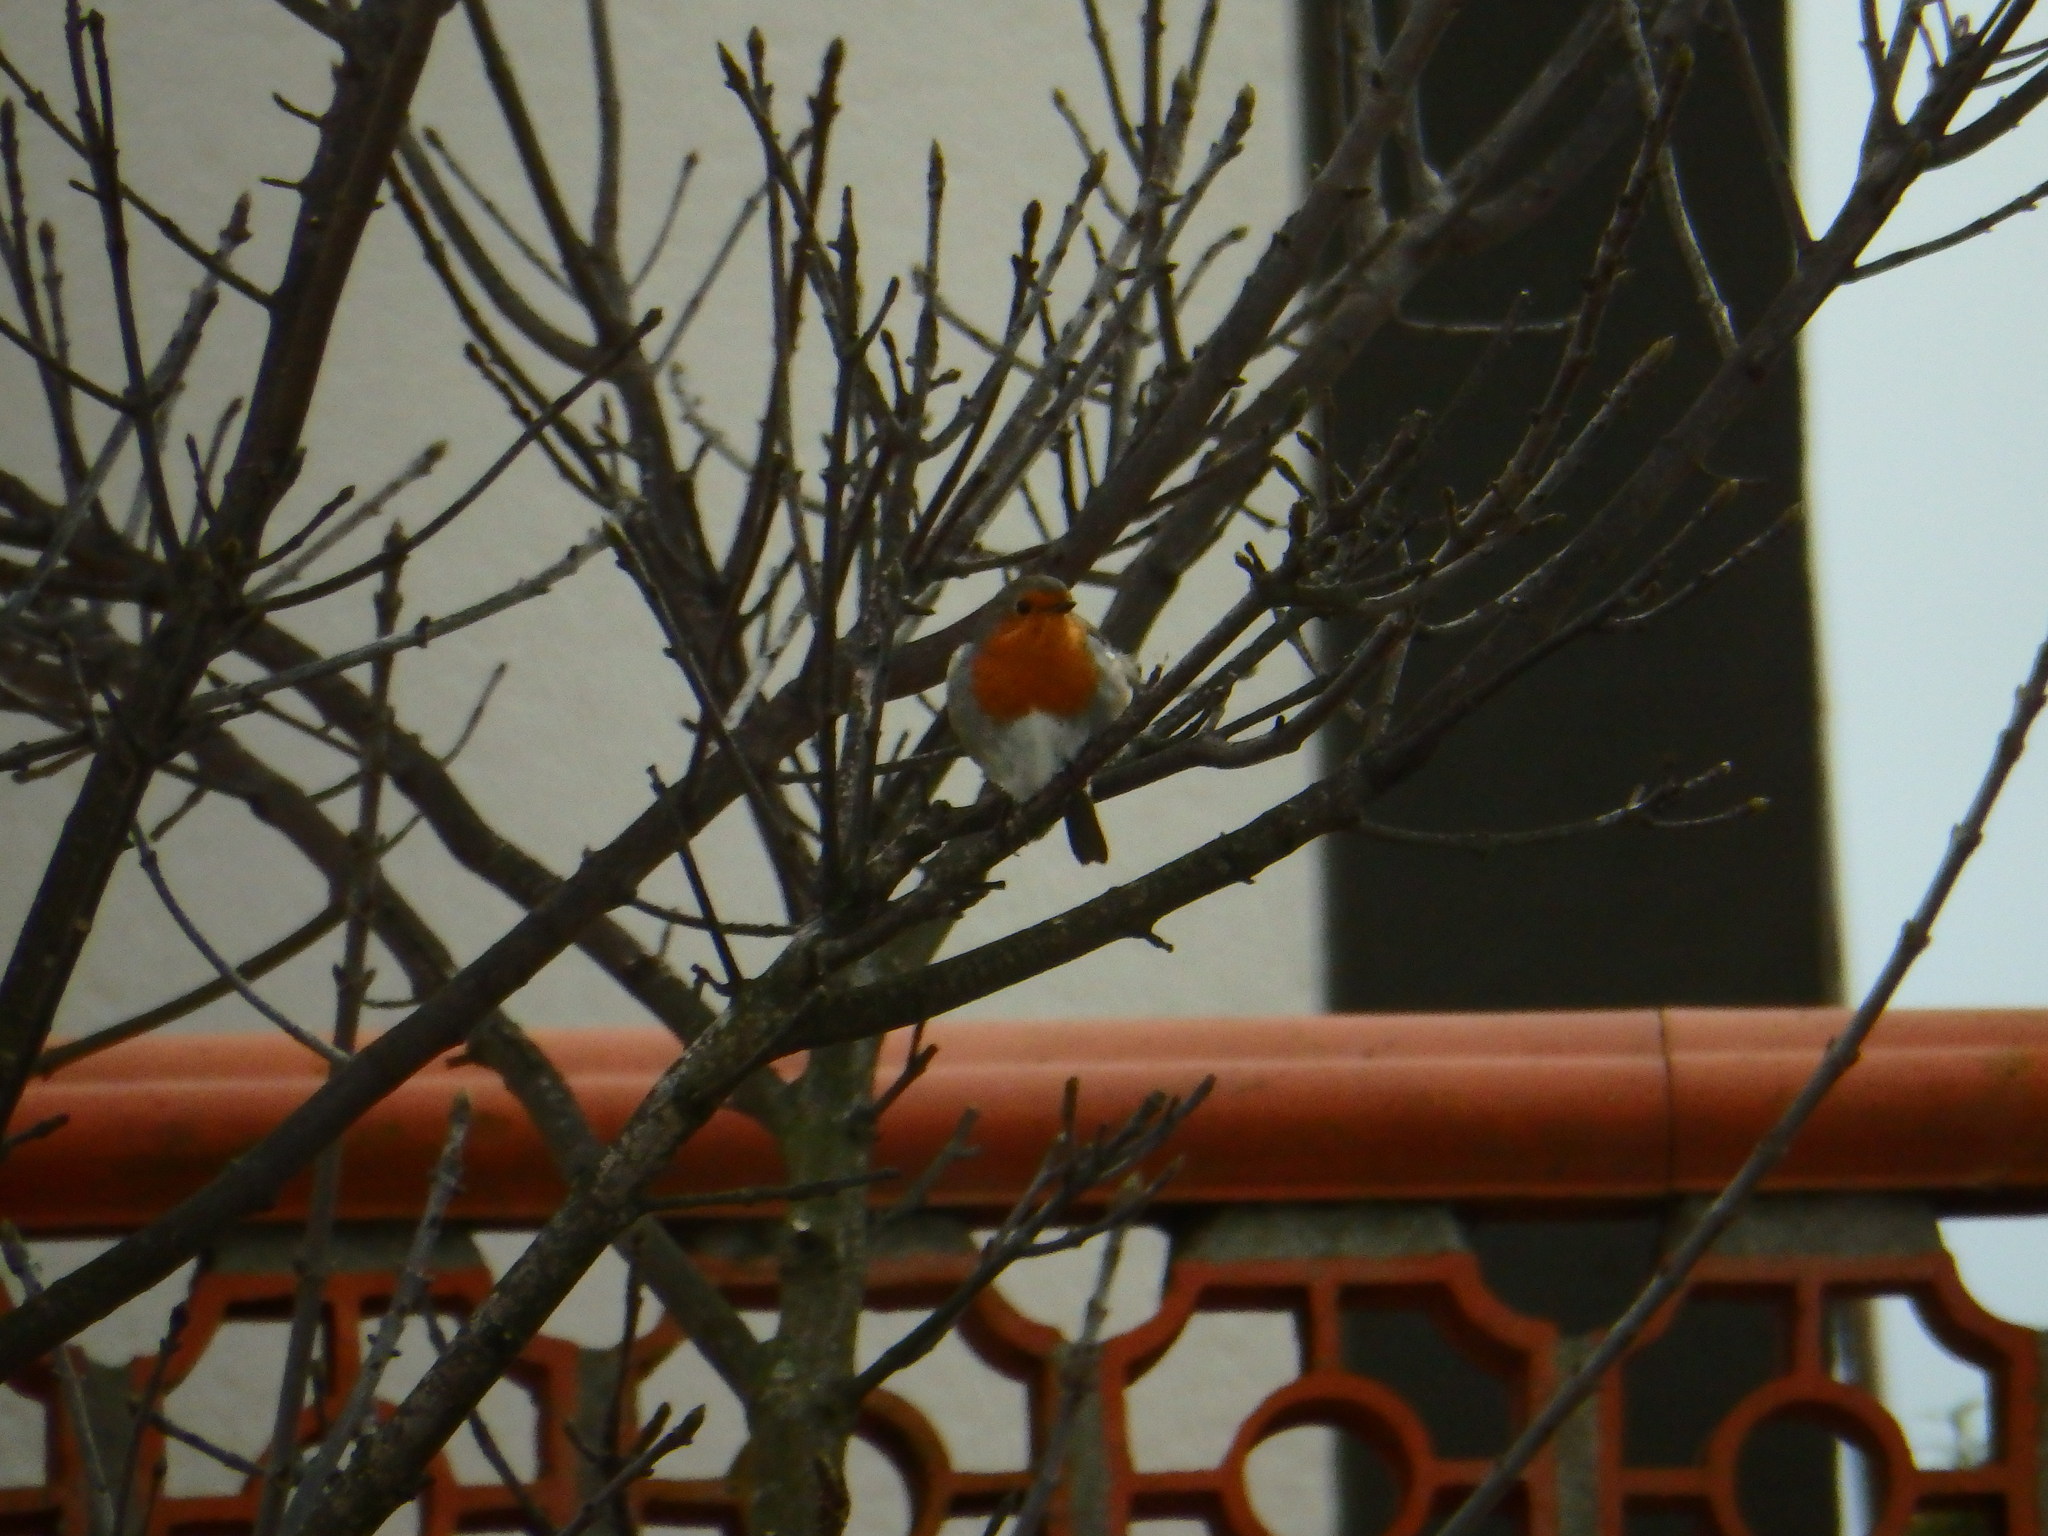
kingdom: Animalia
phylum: Chordata
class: Aves
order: Passeriformes
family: Muscicapidae
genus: Erithacus
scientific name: Erithacus rubecula
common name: European robin
